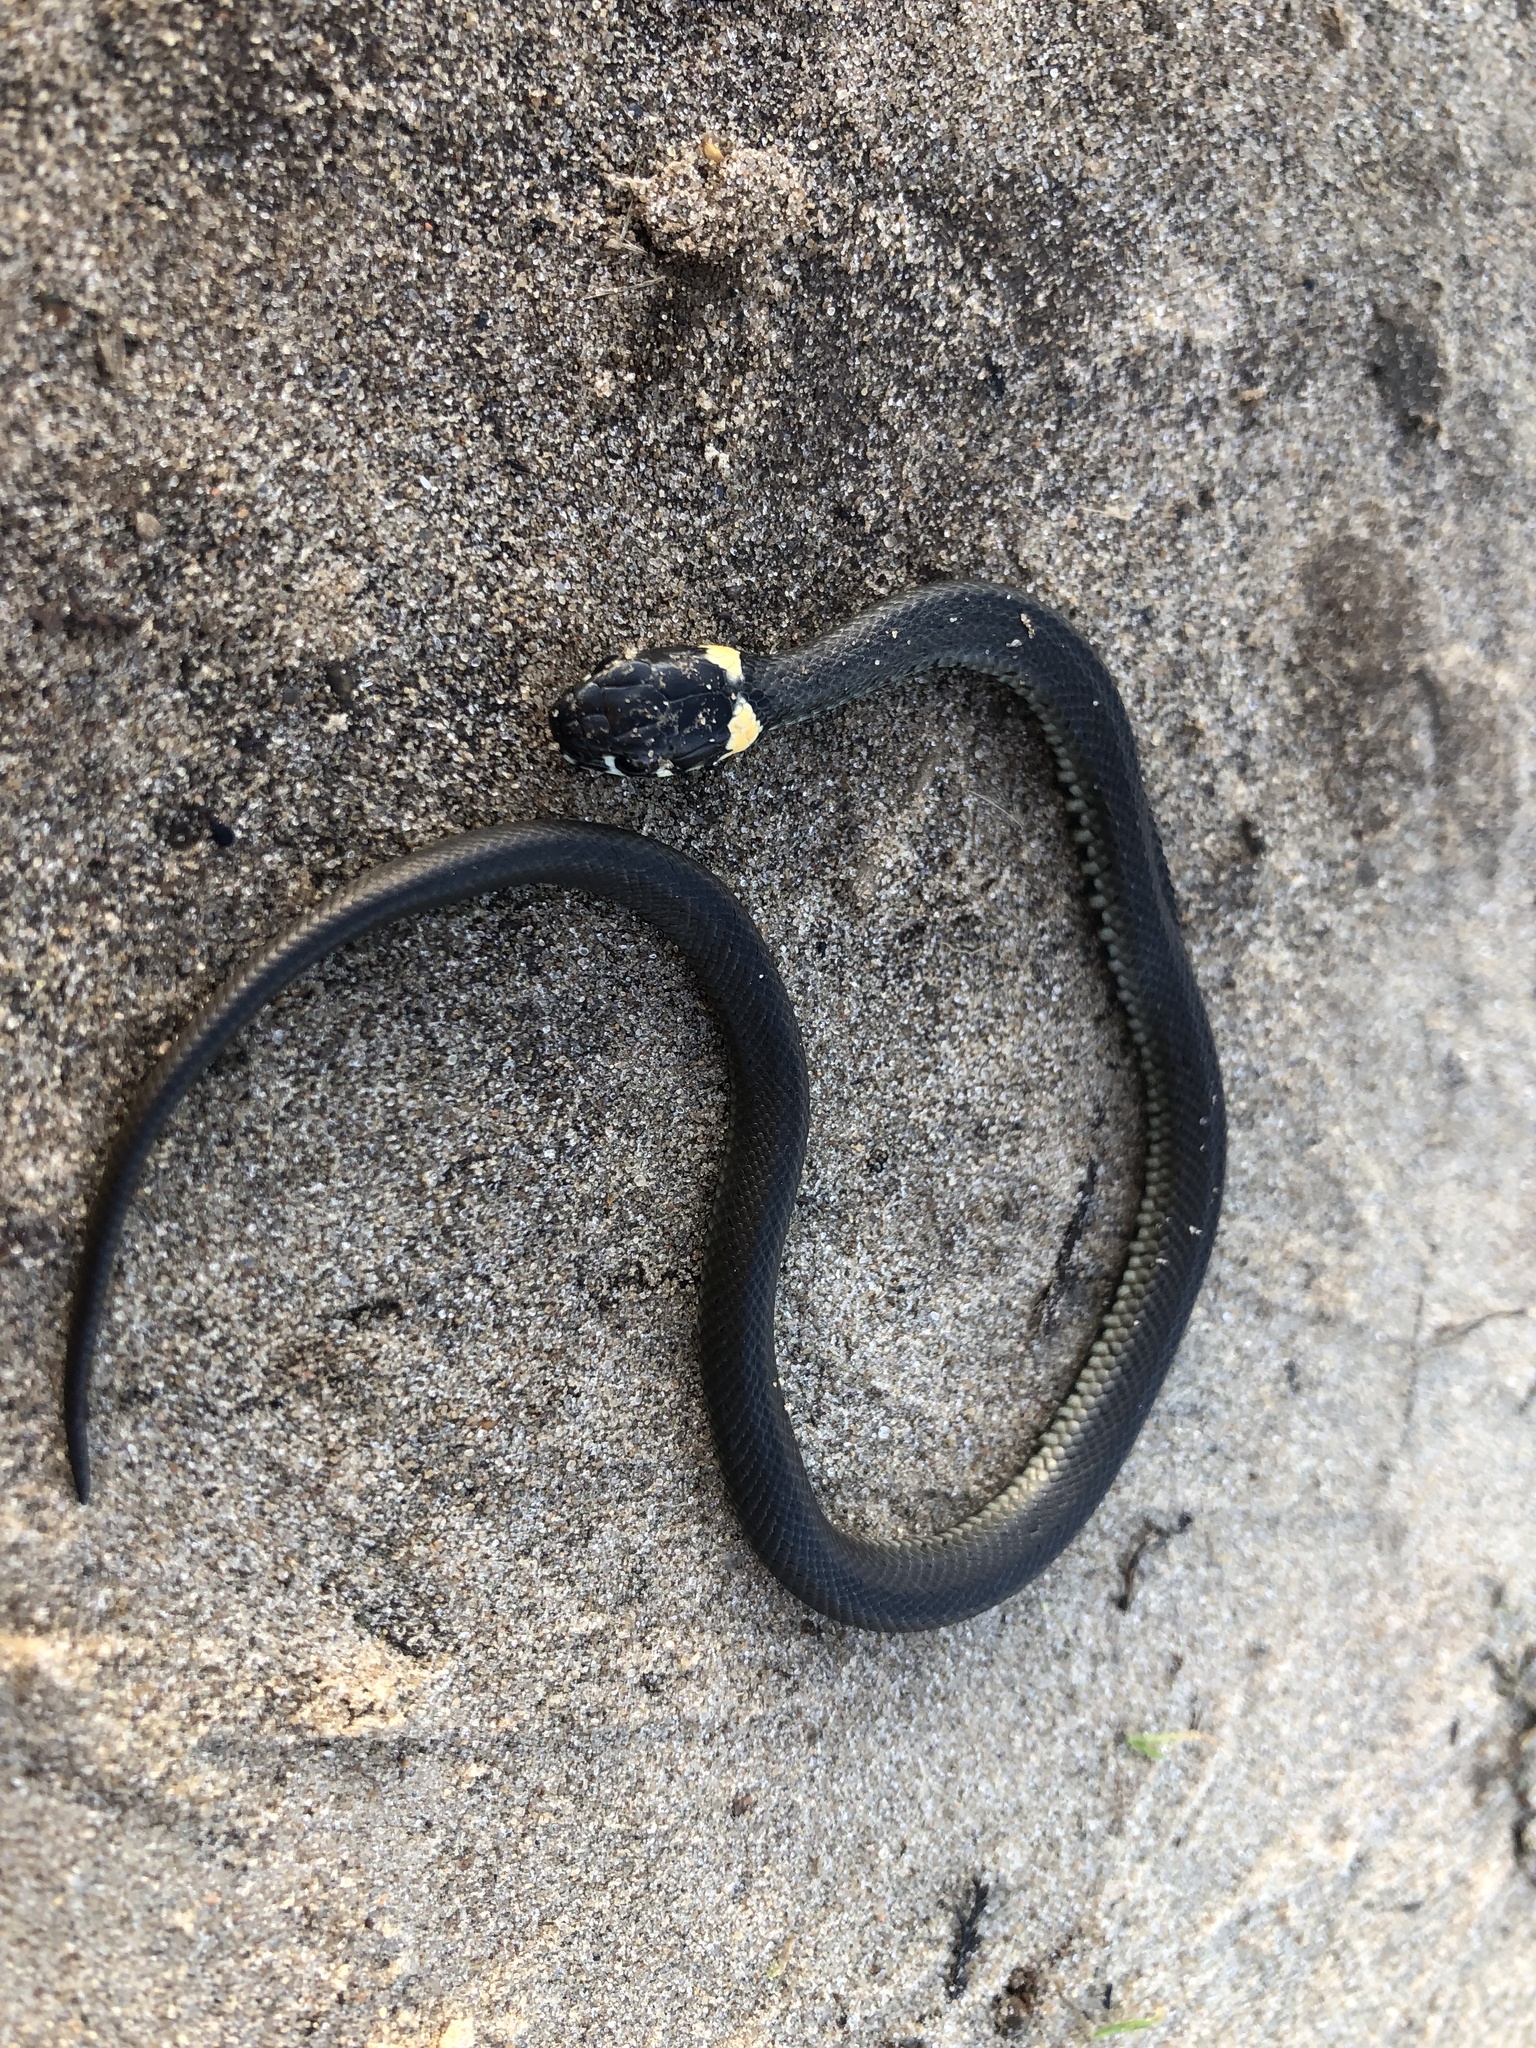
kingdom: Animalia
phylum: Chordata
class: Squamata
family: Colubridae
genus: Natrix
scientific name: Natrix natrix
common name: Grass snake
